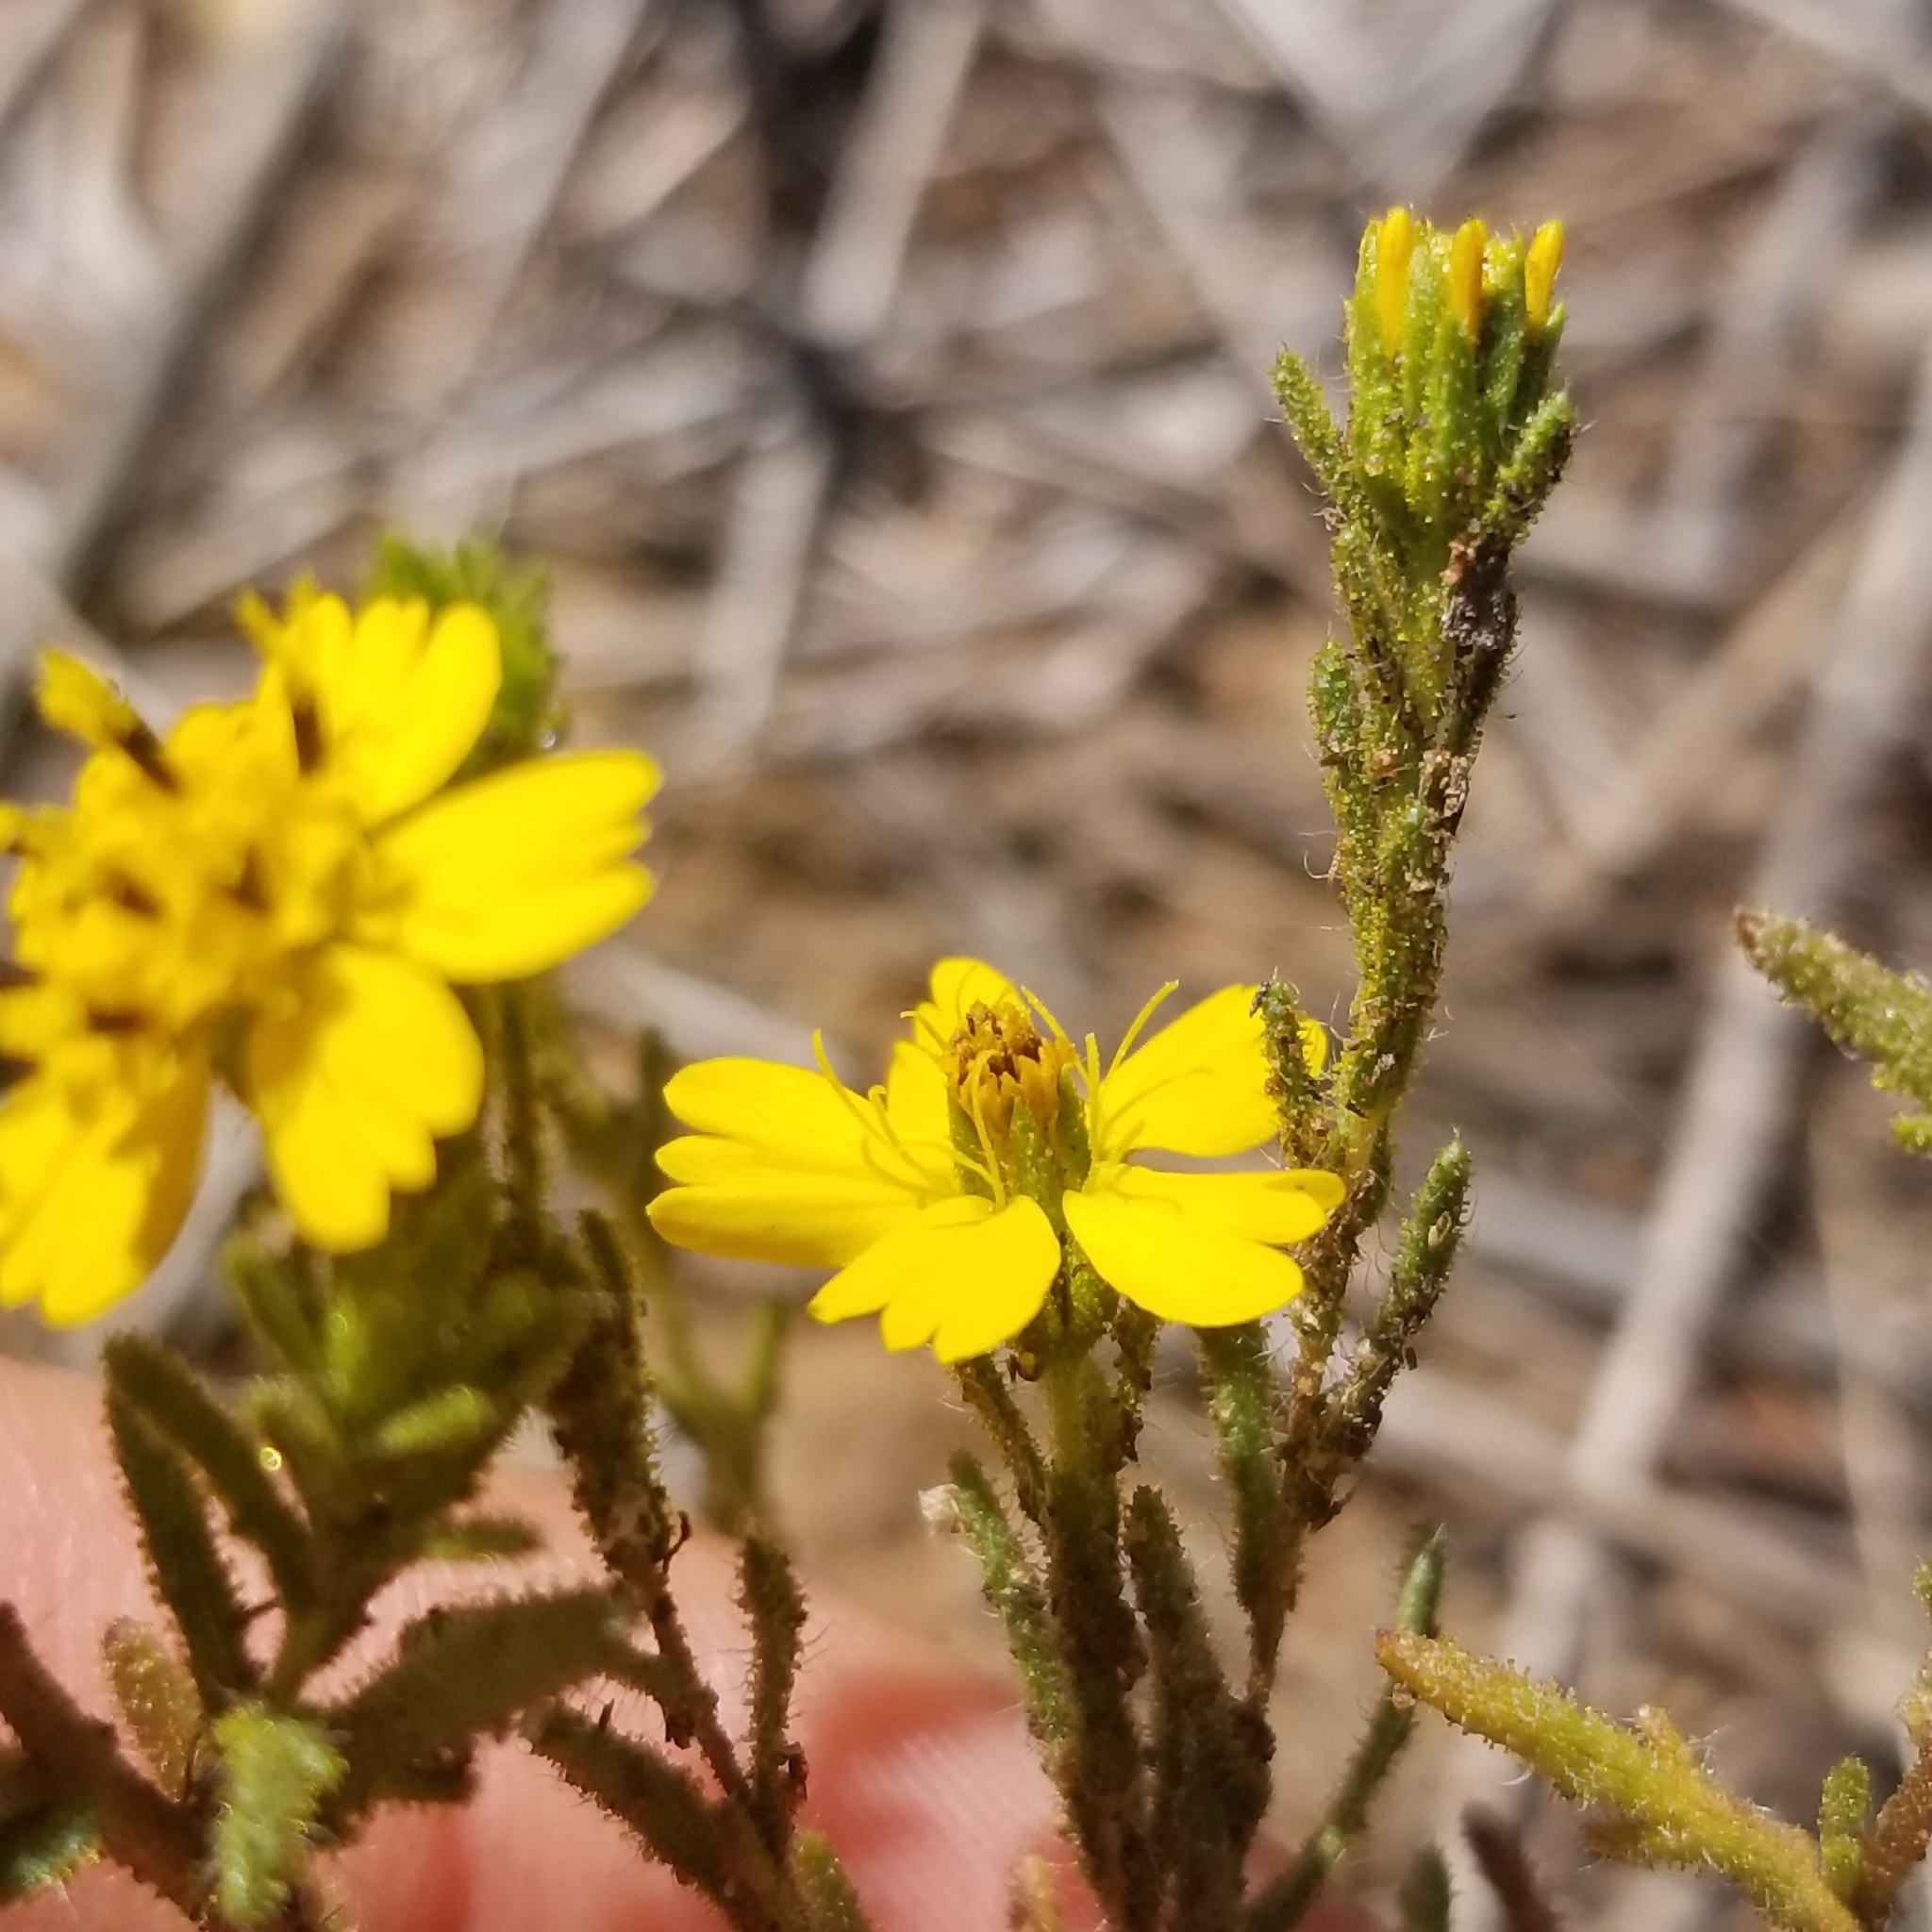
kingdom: Plantae
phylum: Tracheophyta
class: Magnoliopsida
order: Asterales
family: Asteraceae
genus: Deinandra
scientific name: Deinandra fasciculata
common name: Clustered tarweed
